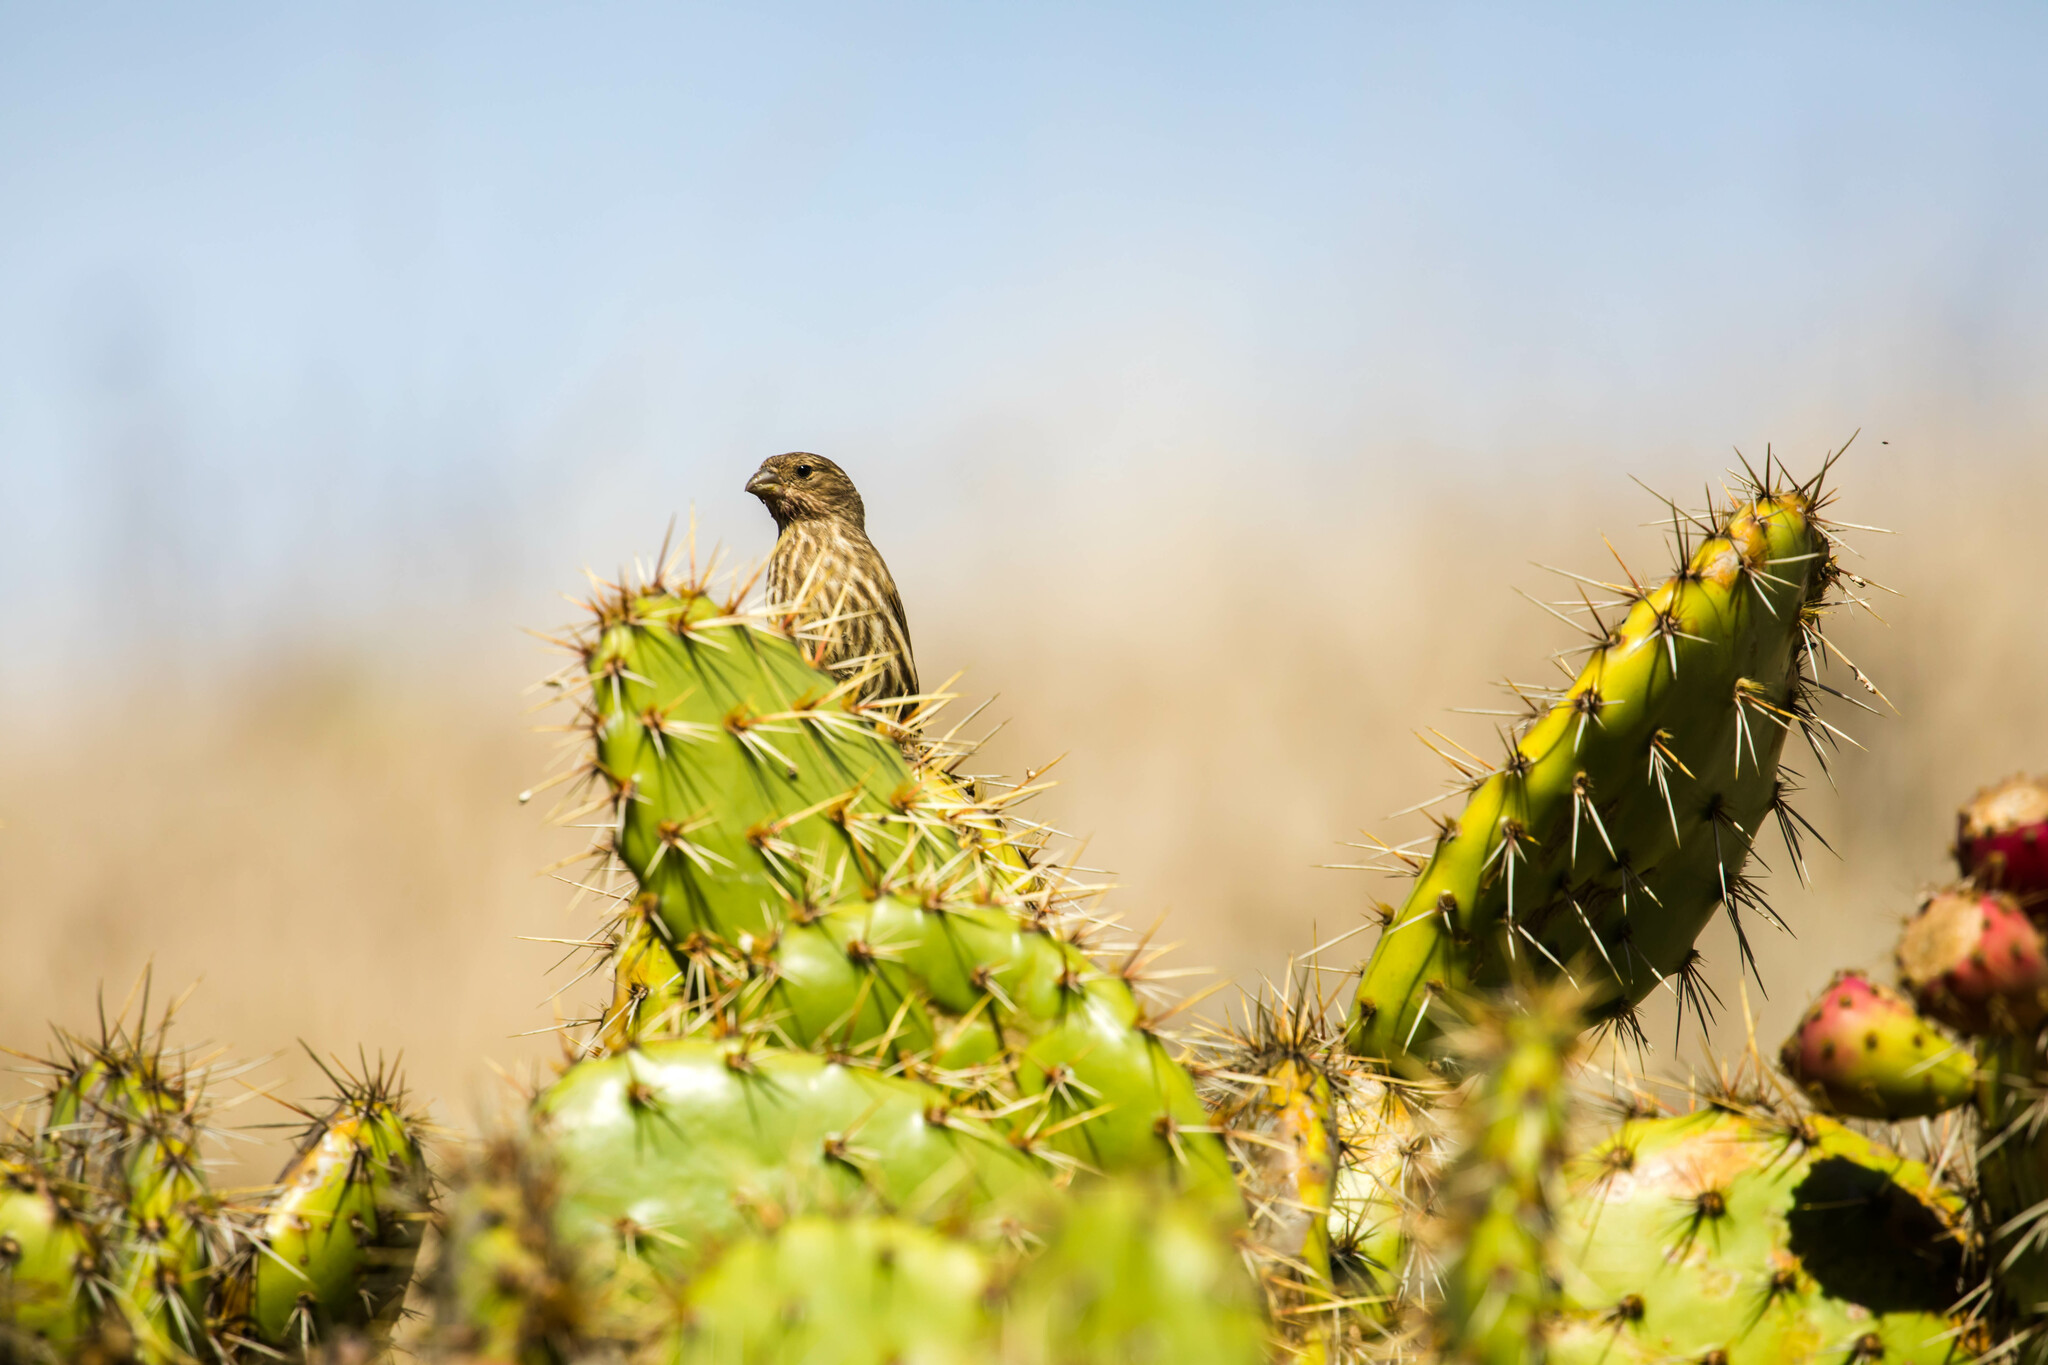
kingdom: Animalia
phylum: Chordata
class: Aves
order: Passeriformes
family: Fringillidae
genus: Haemorhous
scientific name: Haemorhous mexicanus
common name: House finch
